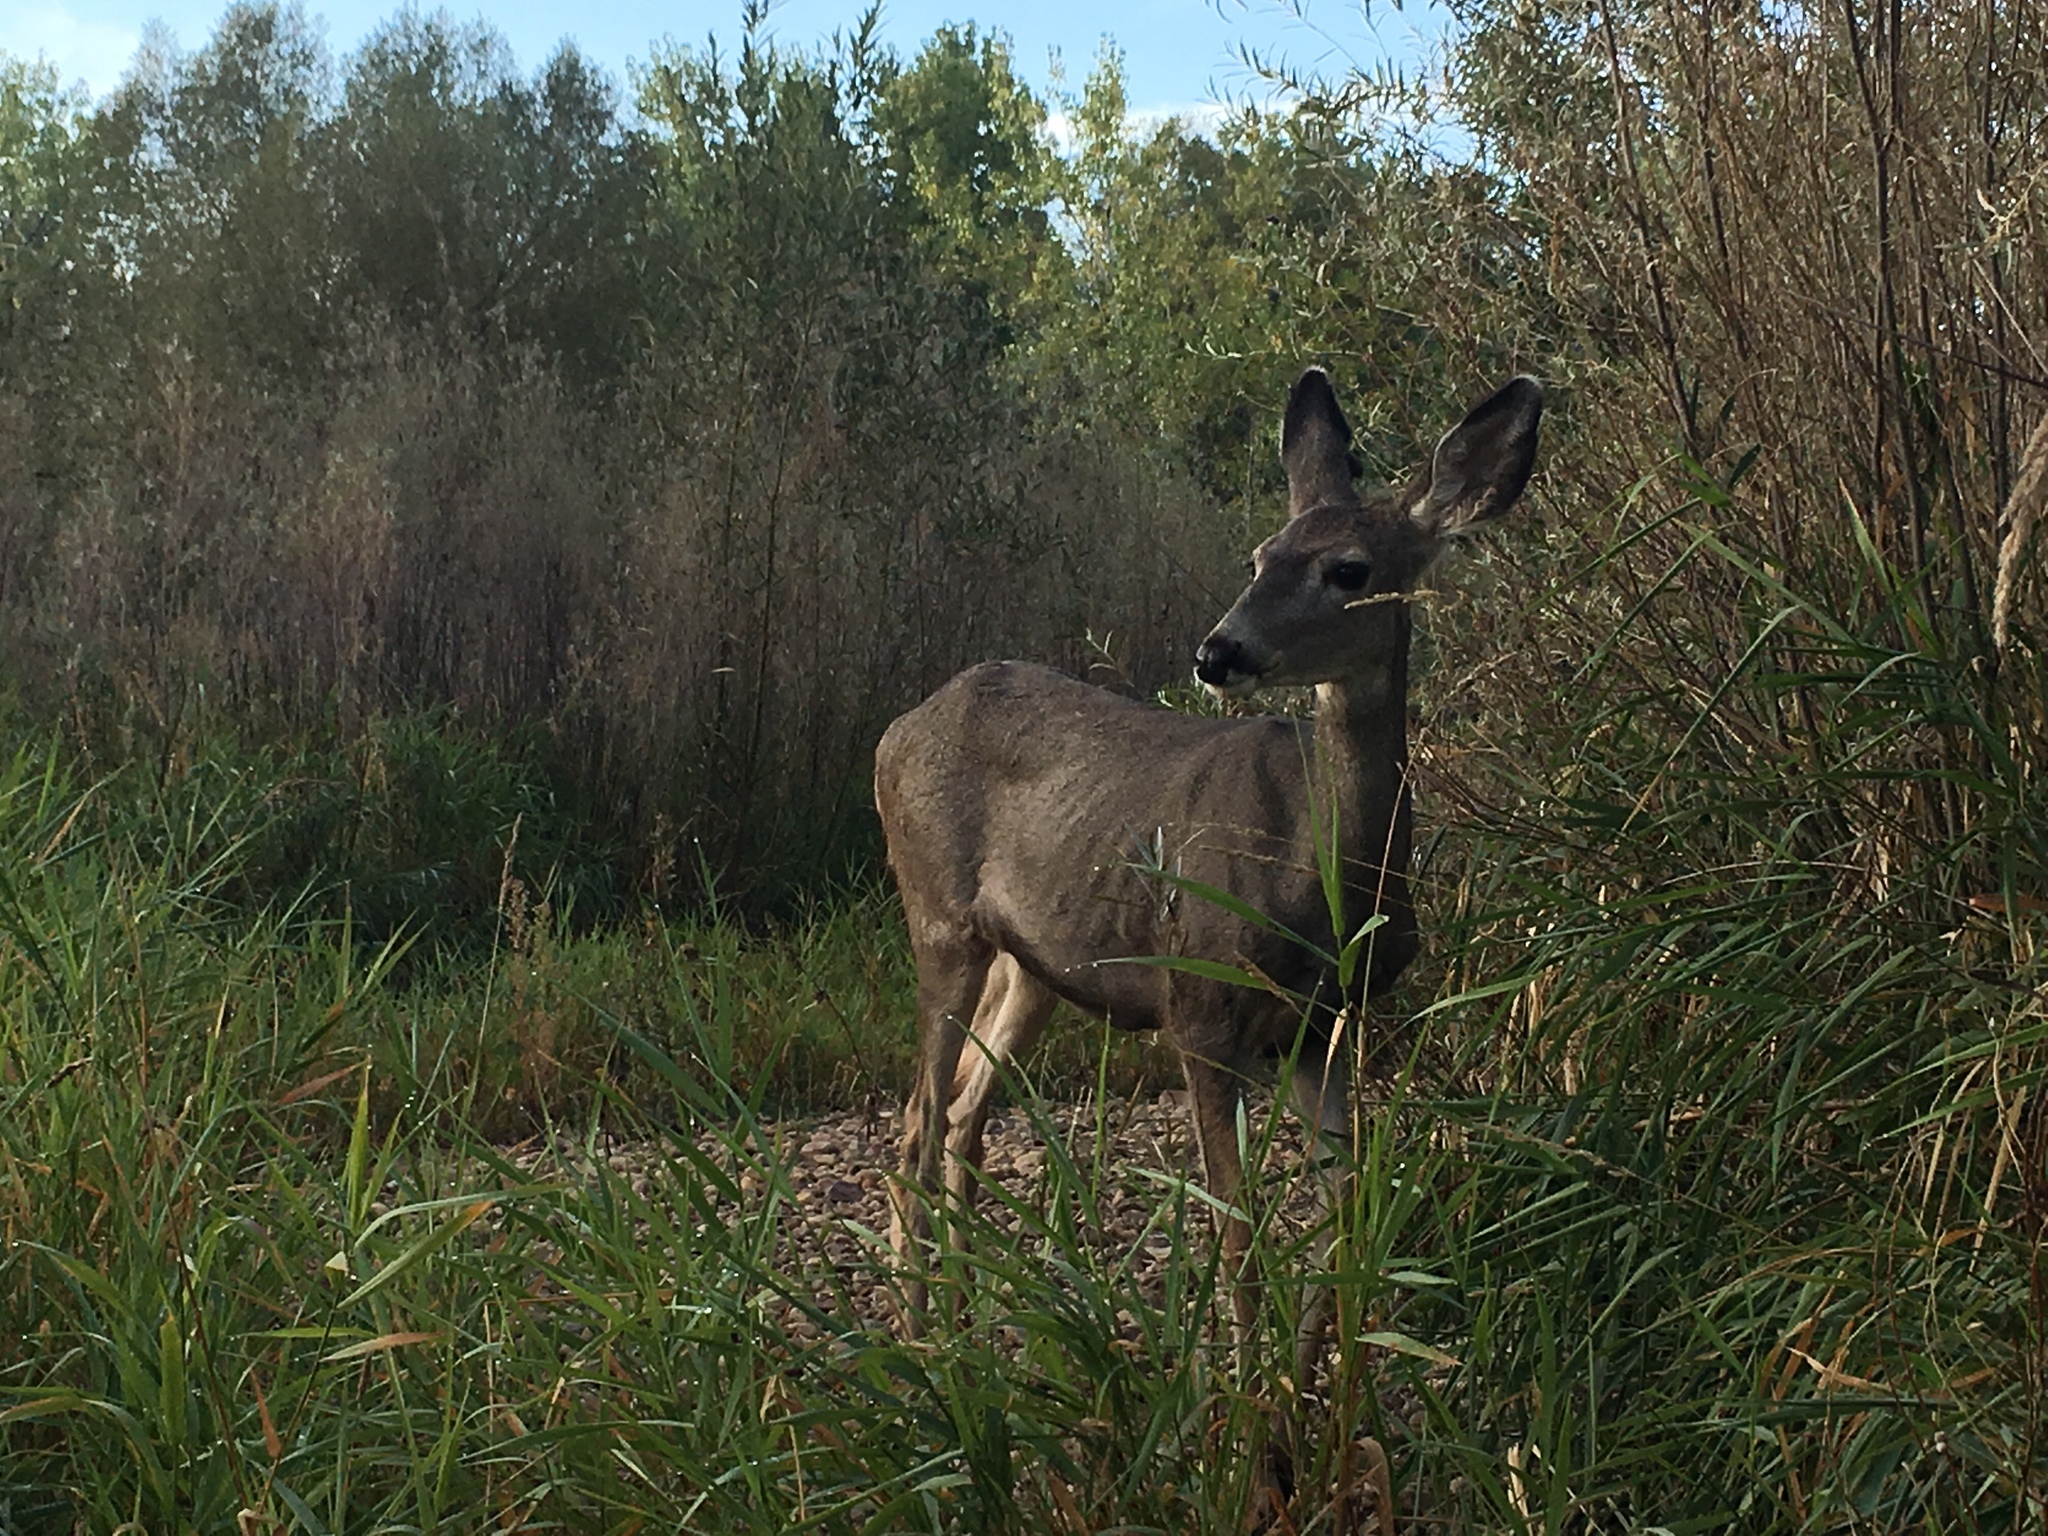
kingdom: Animalia
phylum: Chordata
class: Mammalia
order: Artiodactyla
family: Cervidae
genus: Odocoileus
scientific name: Odocoileus hemionus
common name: Mule deer
